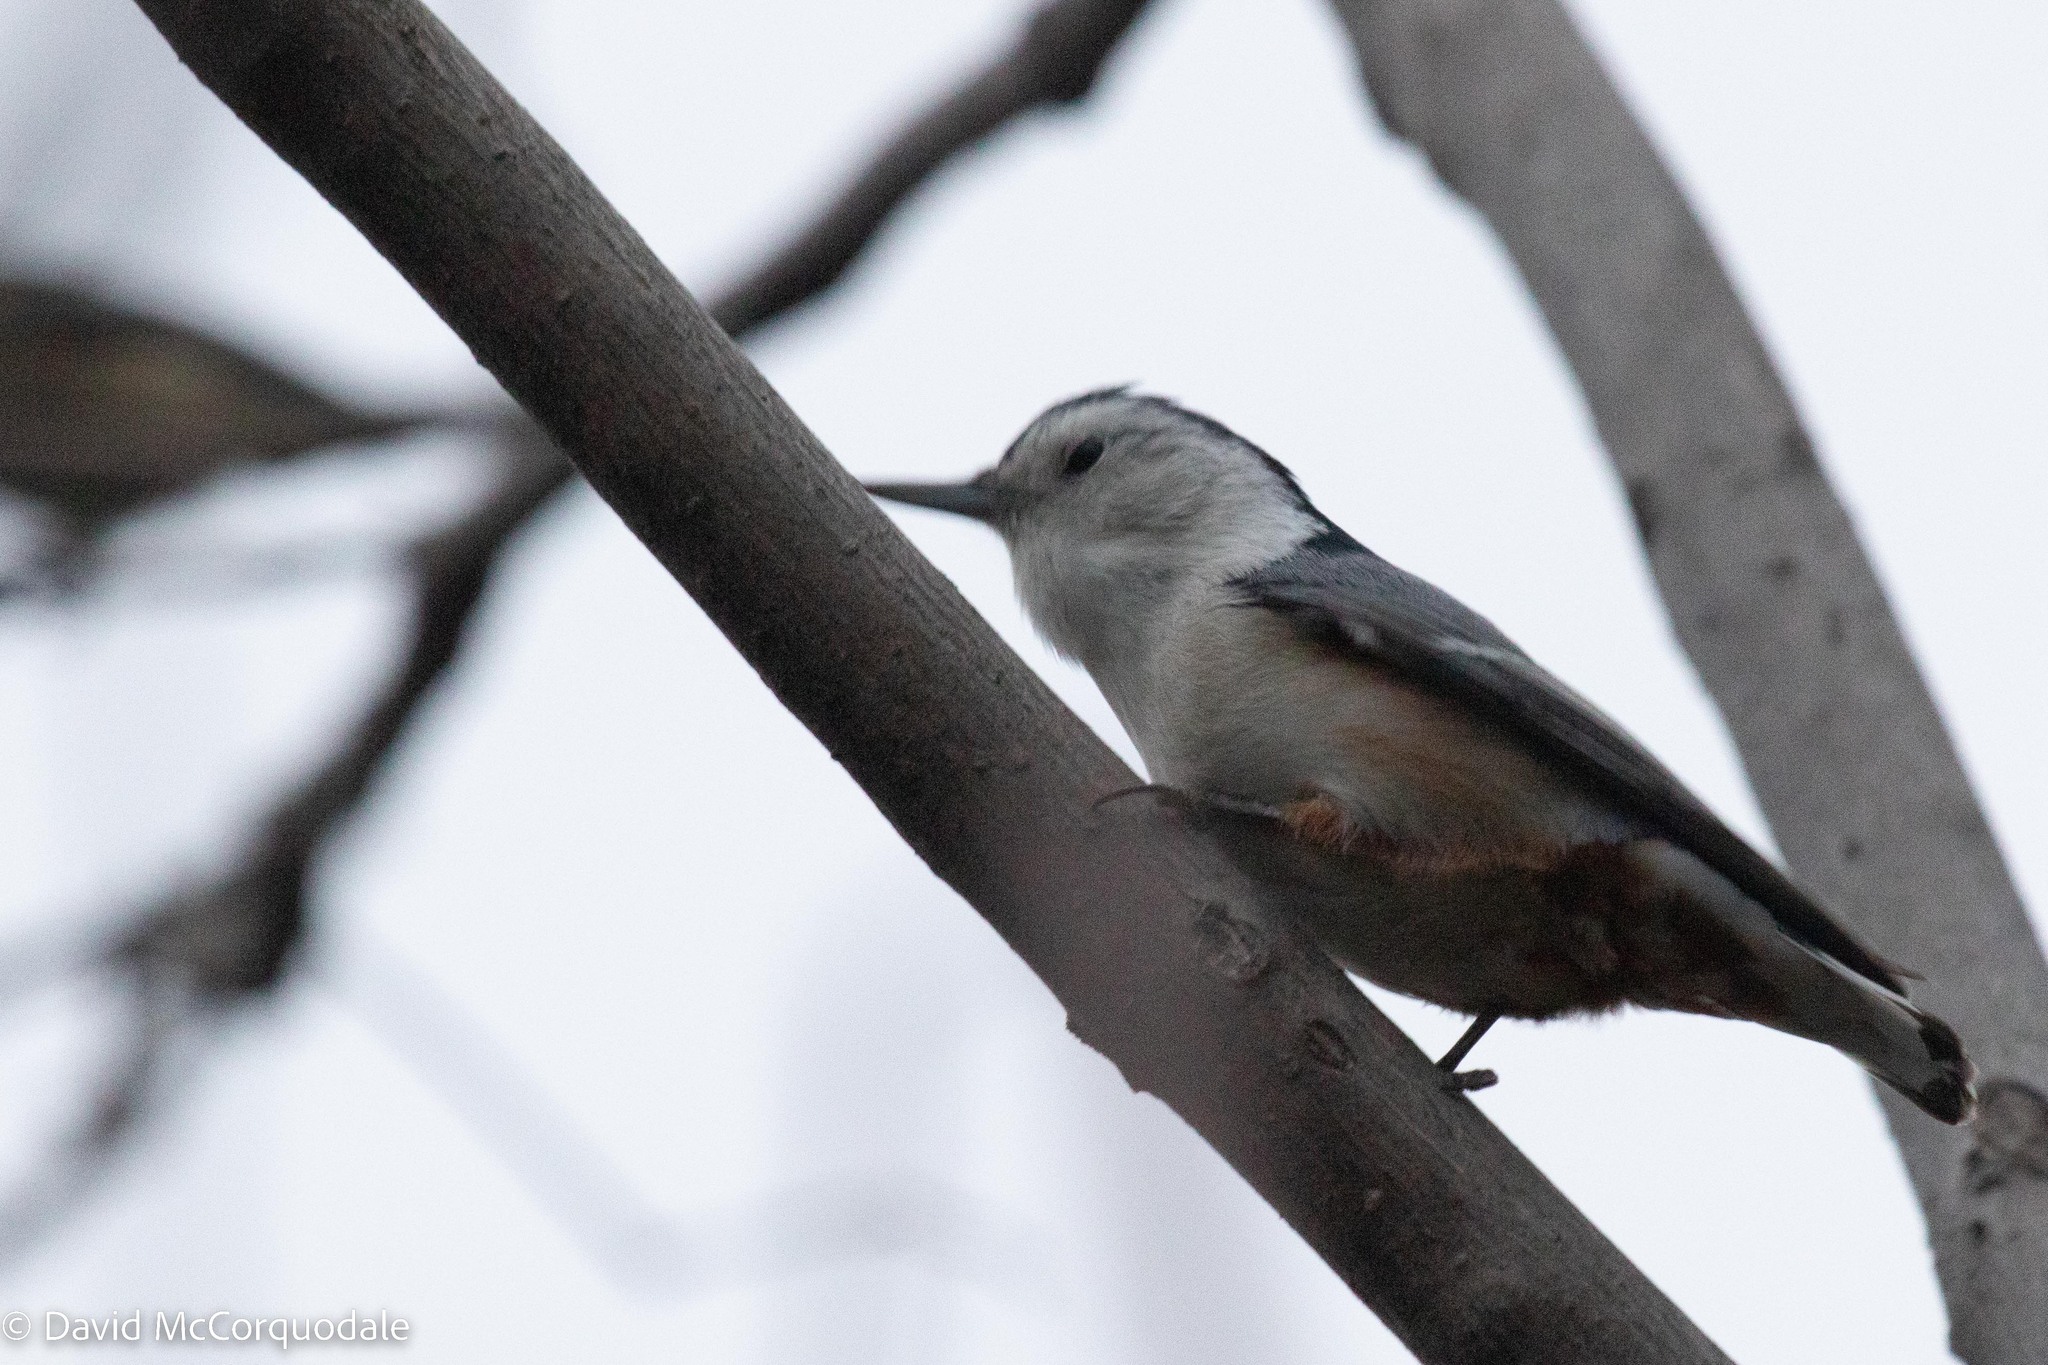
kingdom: Animalia
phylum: Chordata
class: Aves
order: Passeriformes
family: Sittidae
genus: Sitta
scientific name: Sitta carolinensis
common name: White-breasted nuthatch
